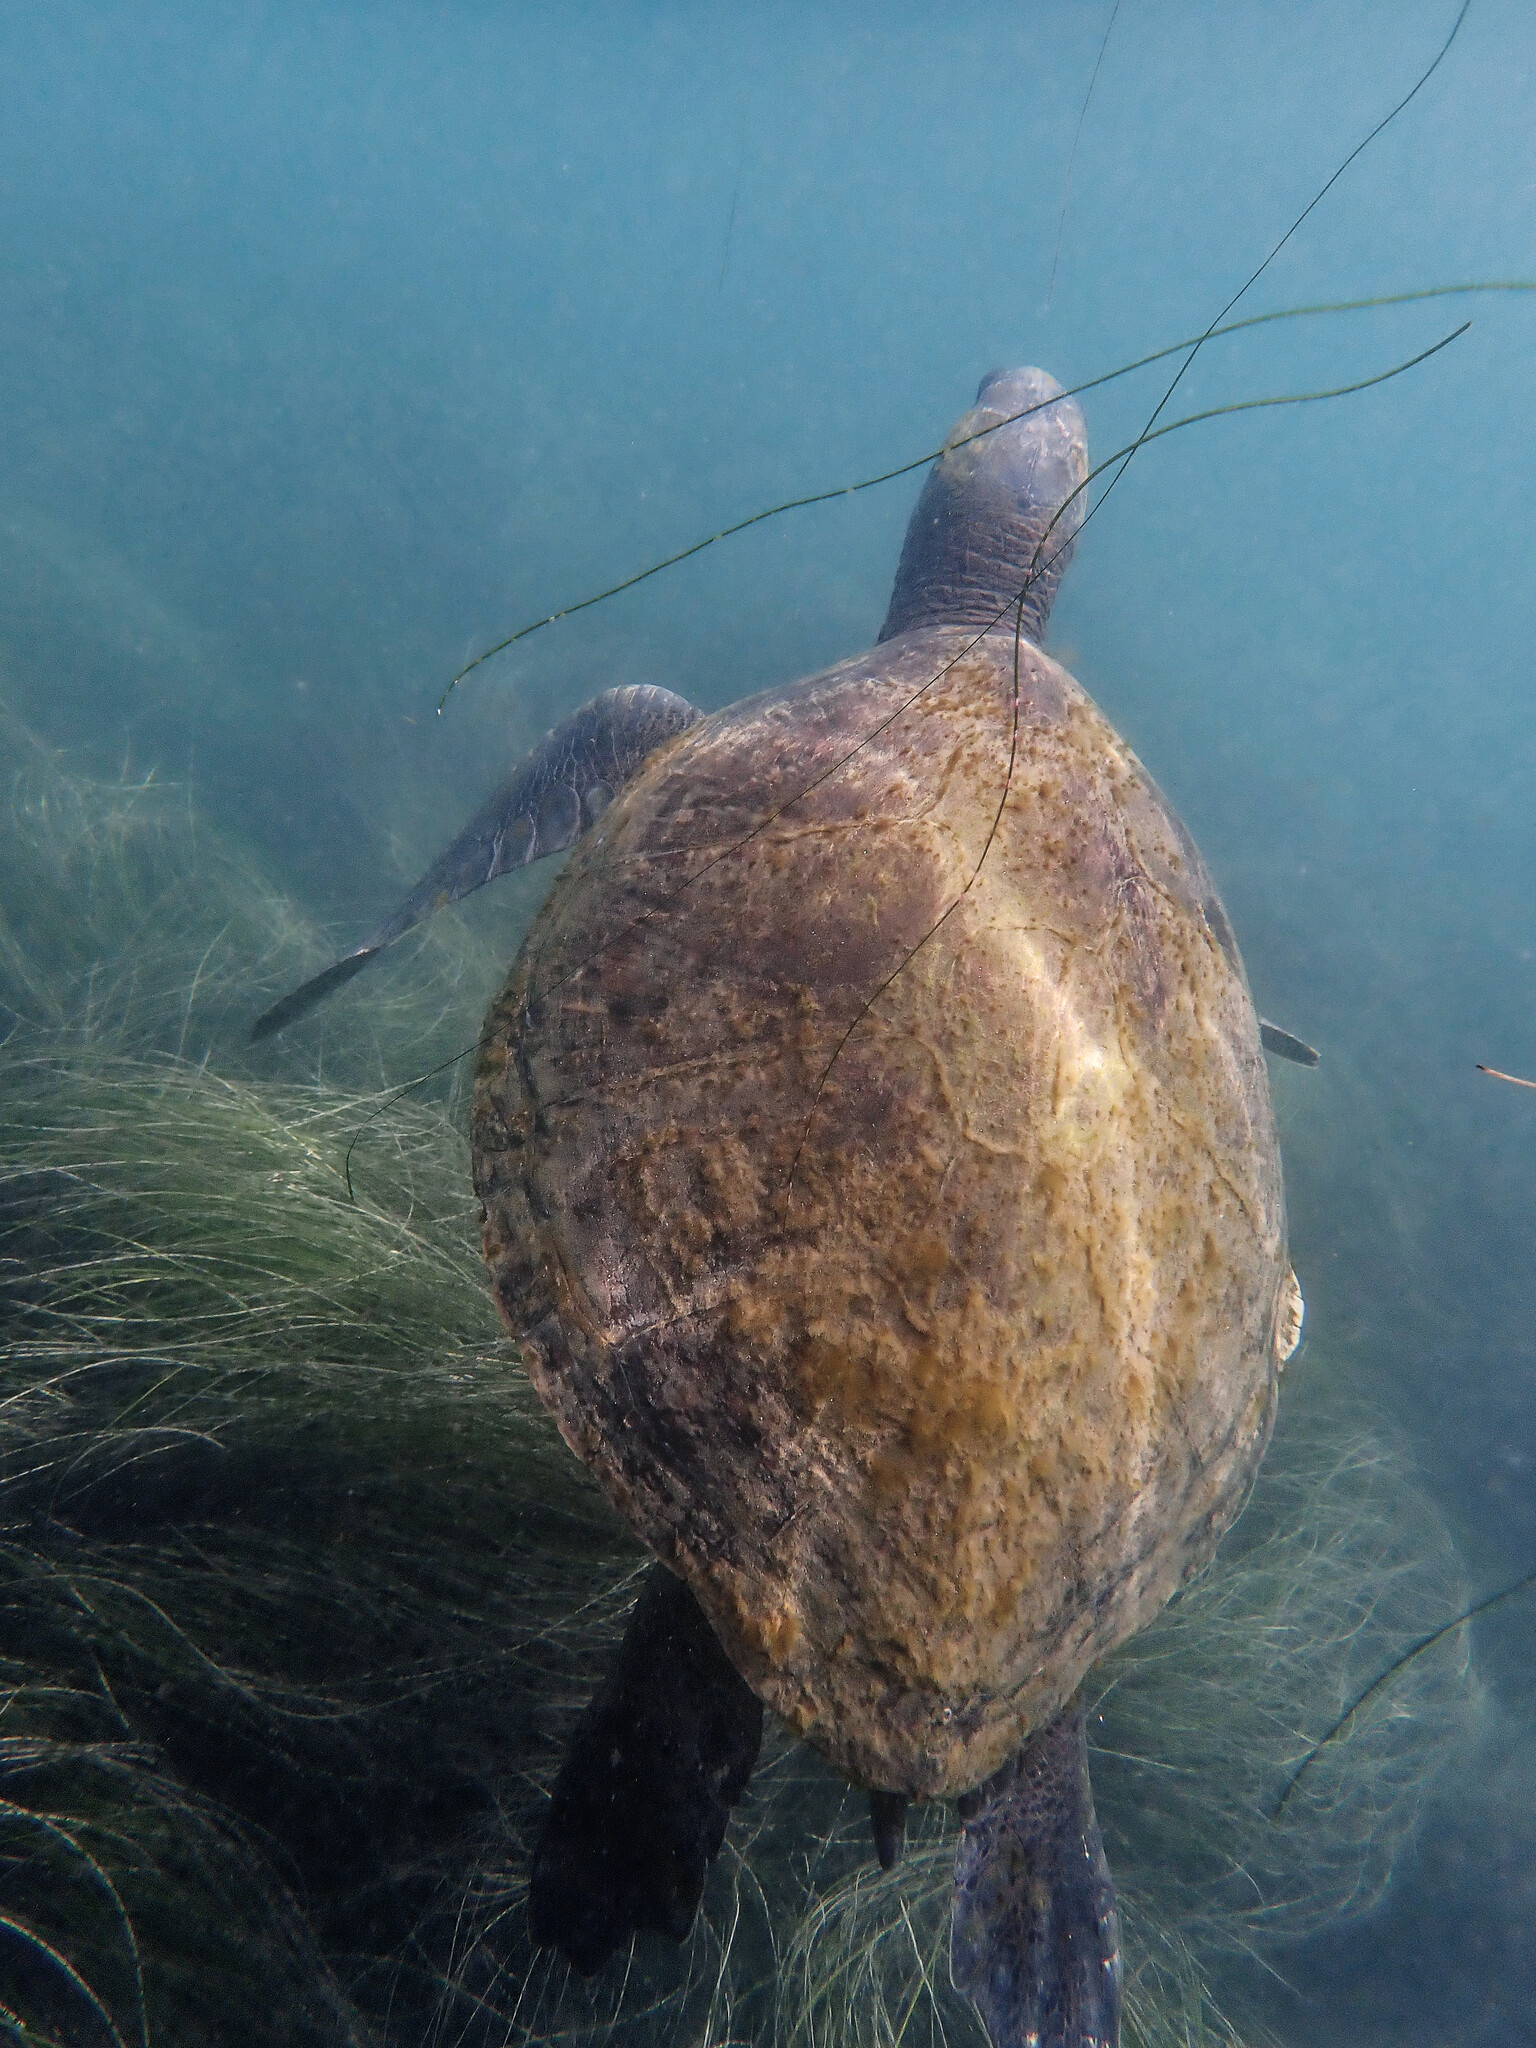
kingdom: Animalia
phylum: Chordata
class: Testudines
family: Cheloniidae
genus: Chelonia
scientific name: Chelonia mydas
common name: Green turtle
